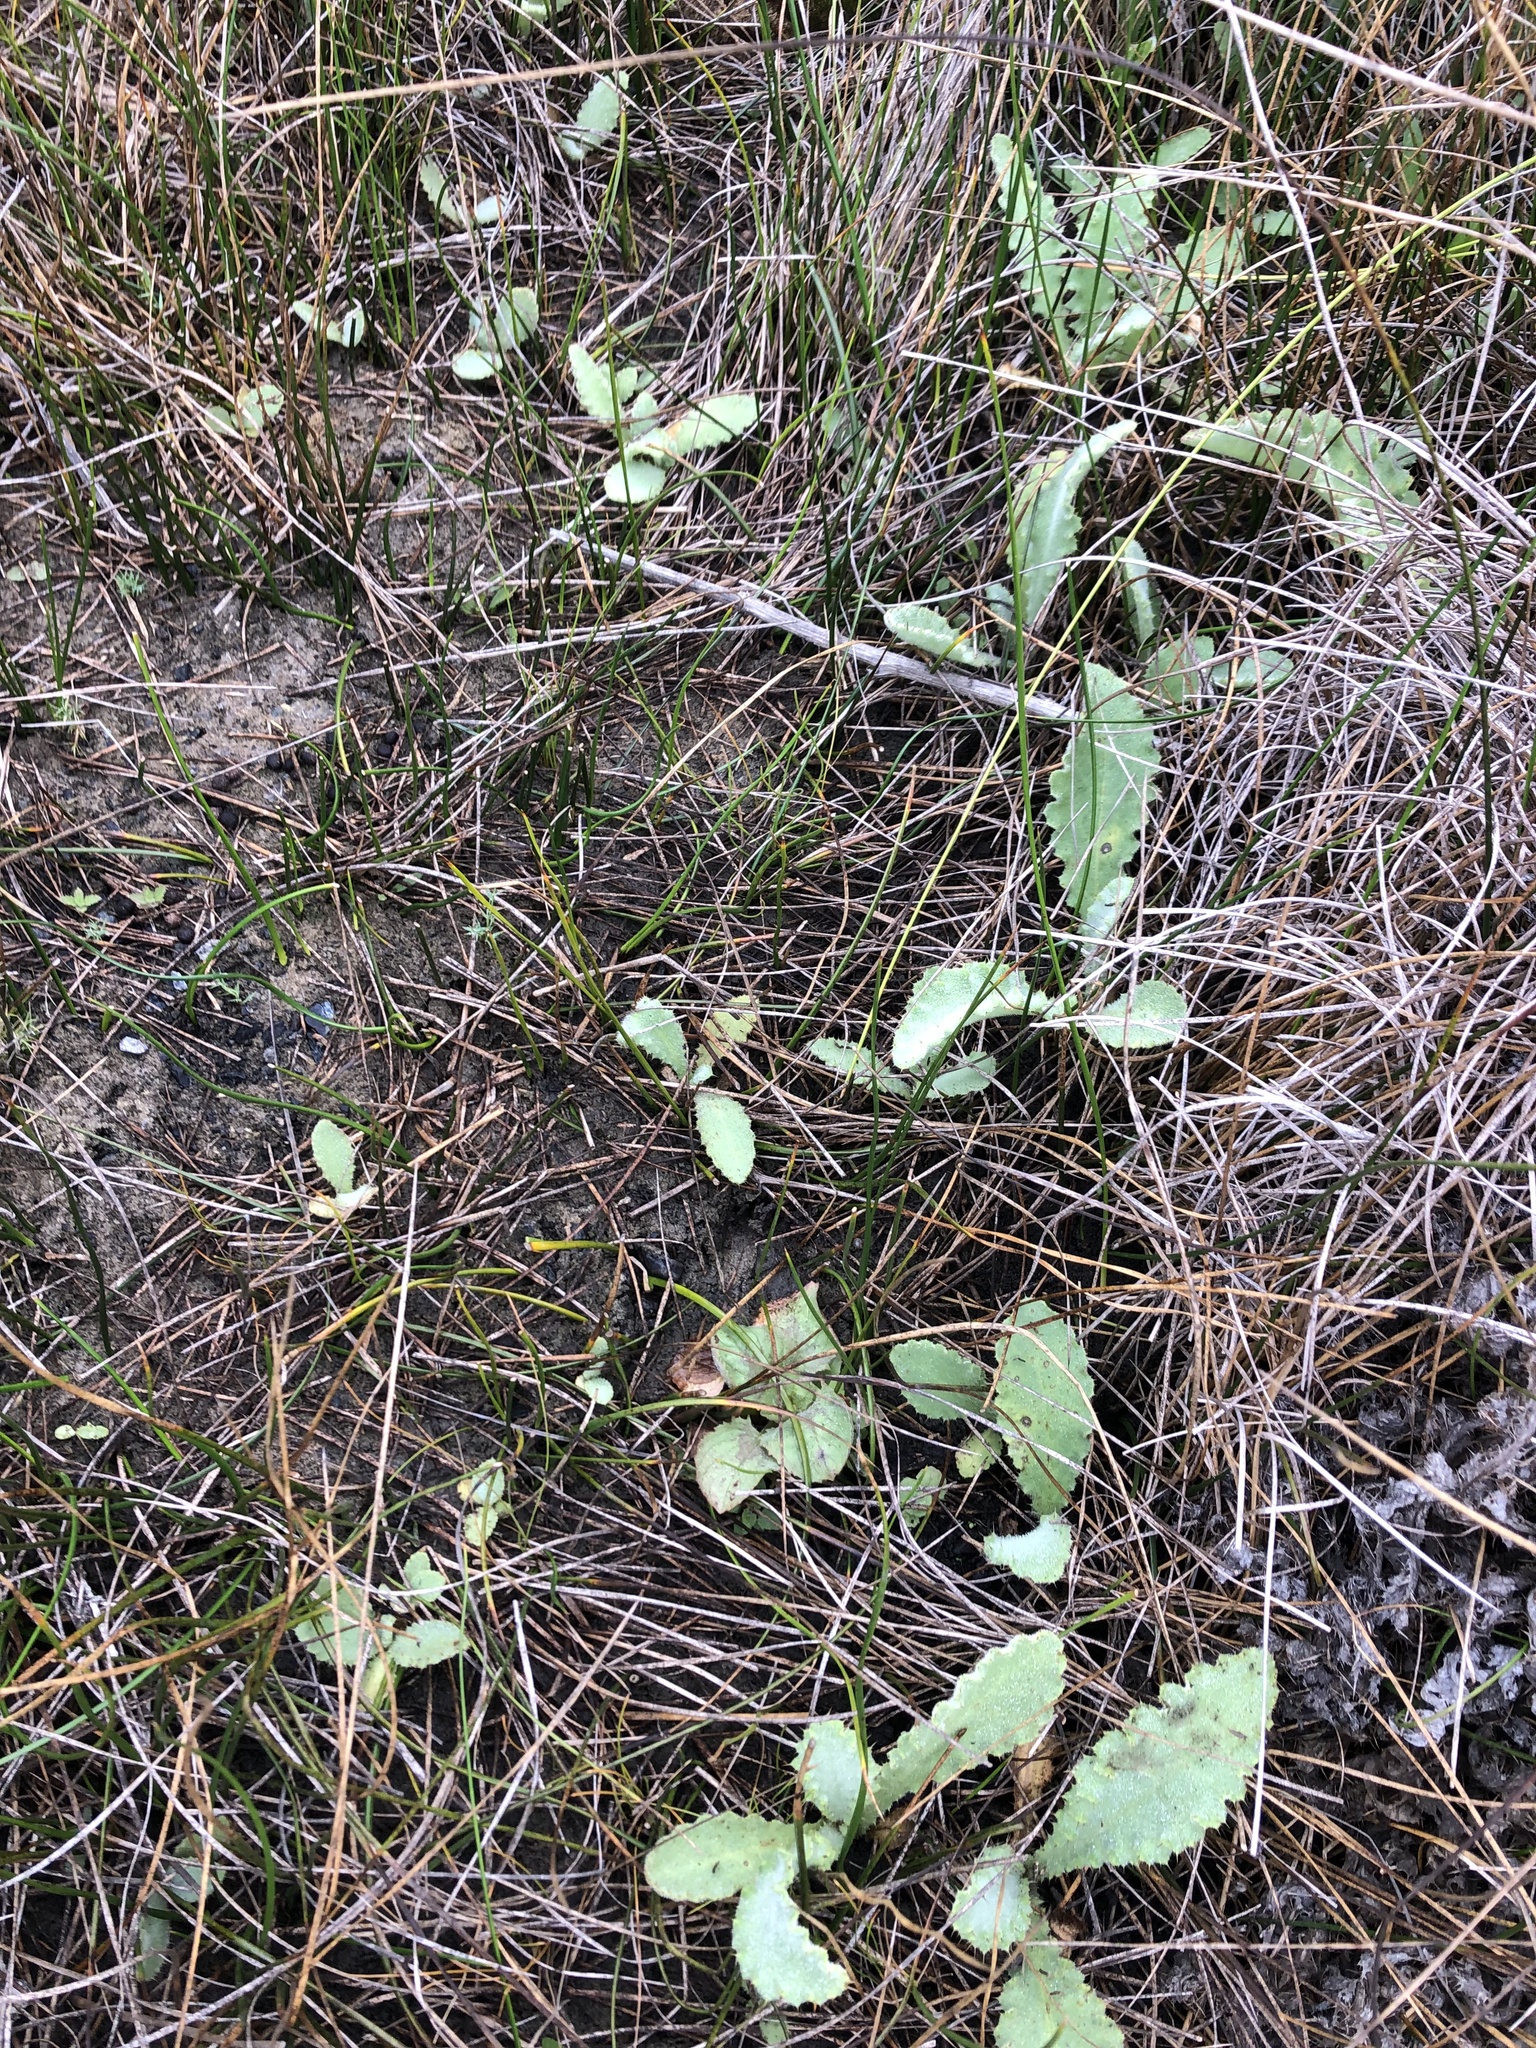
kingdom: Plantae
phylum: Tracheophyta
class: Magnoliopsida
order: Asterales
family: Asteraceae
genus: Cirsium
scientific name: Cirsium fontinale
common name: Fountain thistle
